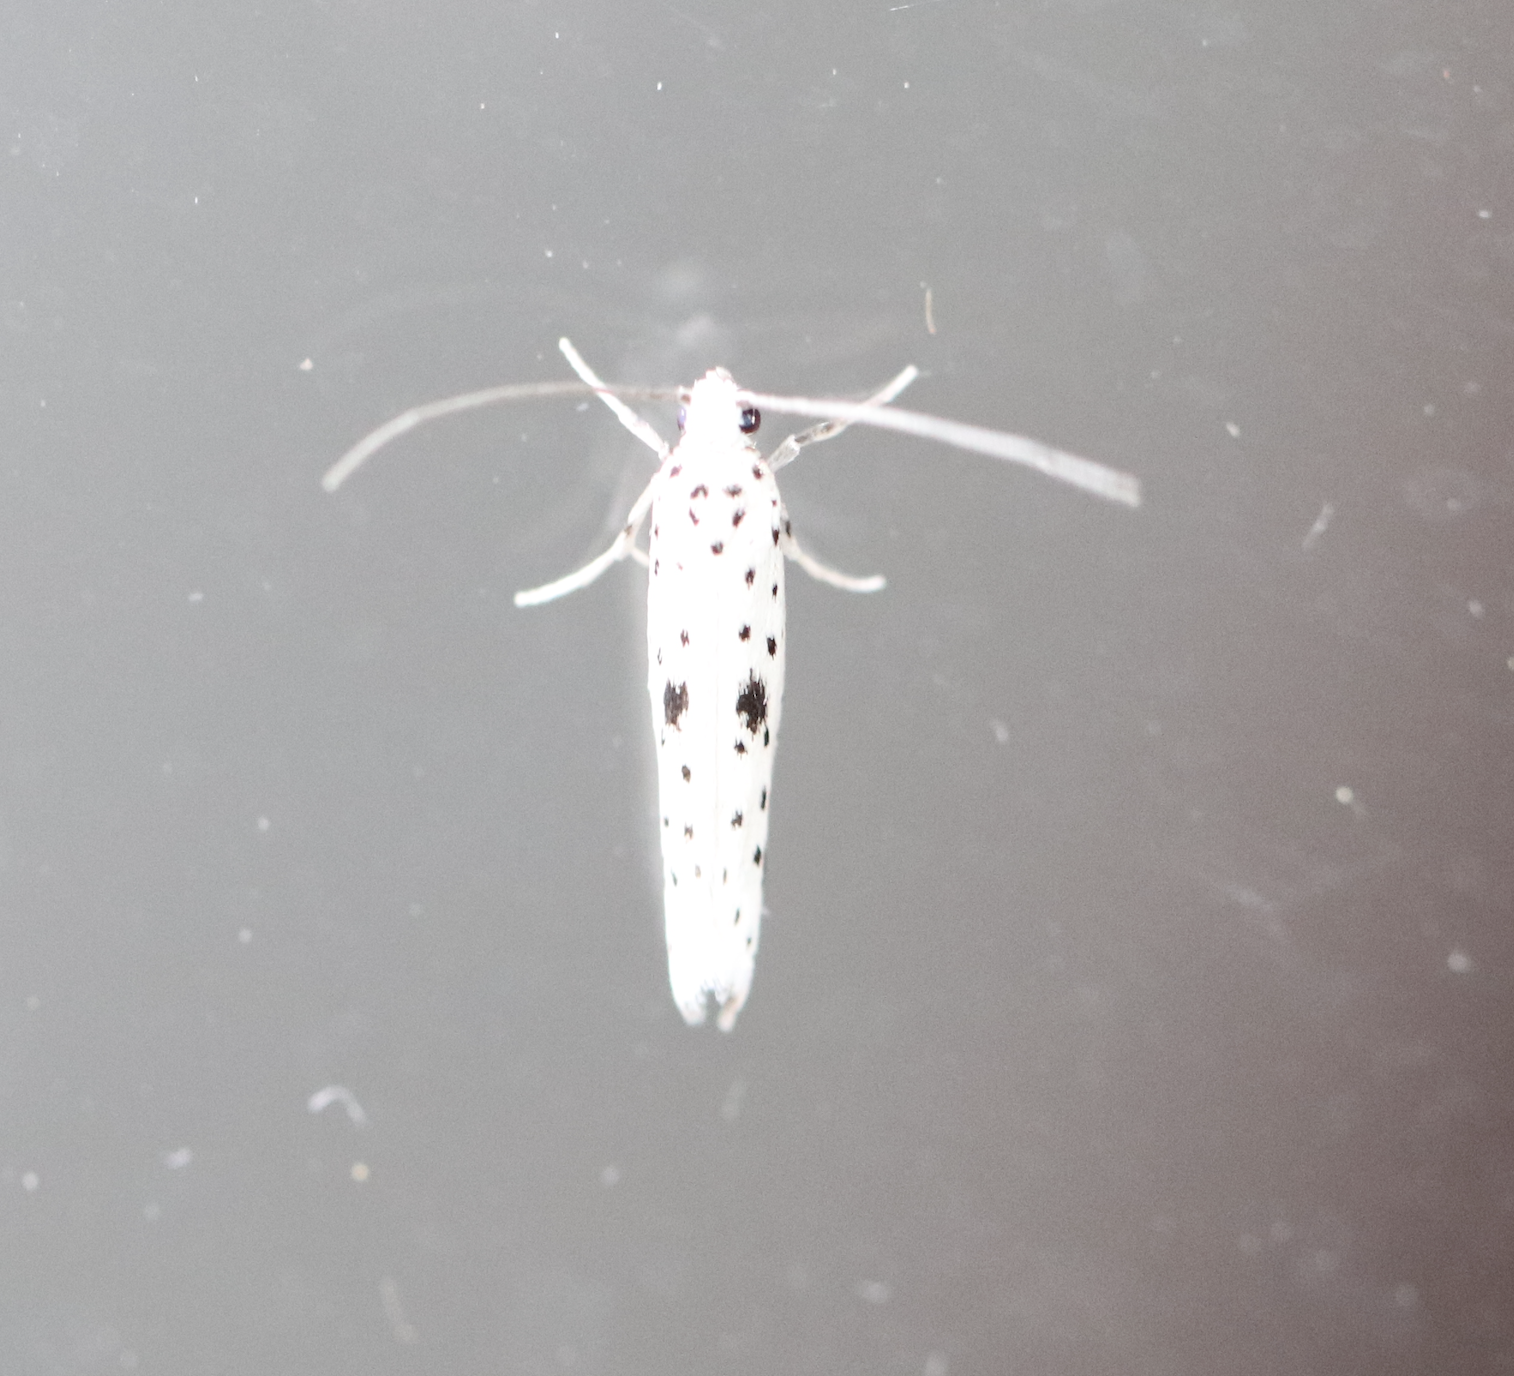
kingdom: Animalia
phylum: Arthropoda
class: Insecta
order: Lepidoptera
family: Yponomeutidae
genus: Yponomeuta
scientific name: Yponomeuta plumbella
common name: Black-tipped ermine
